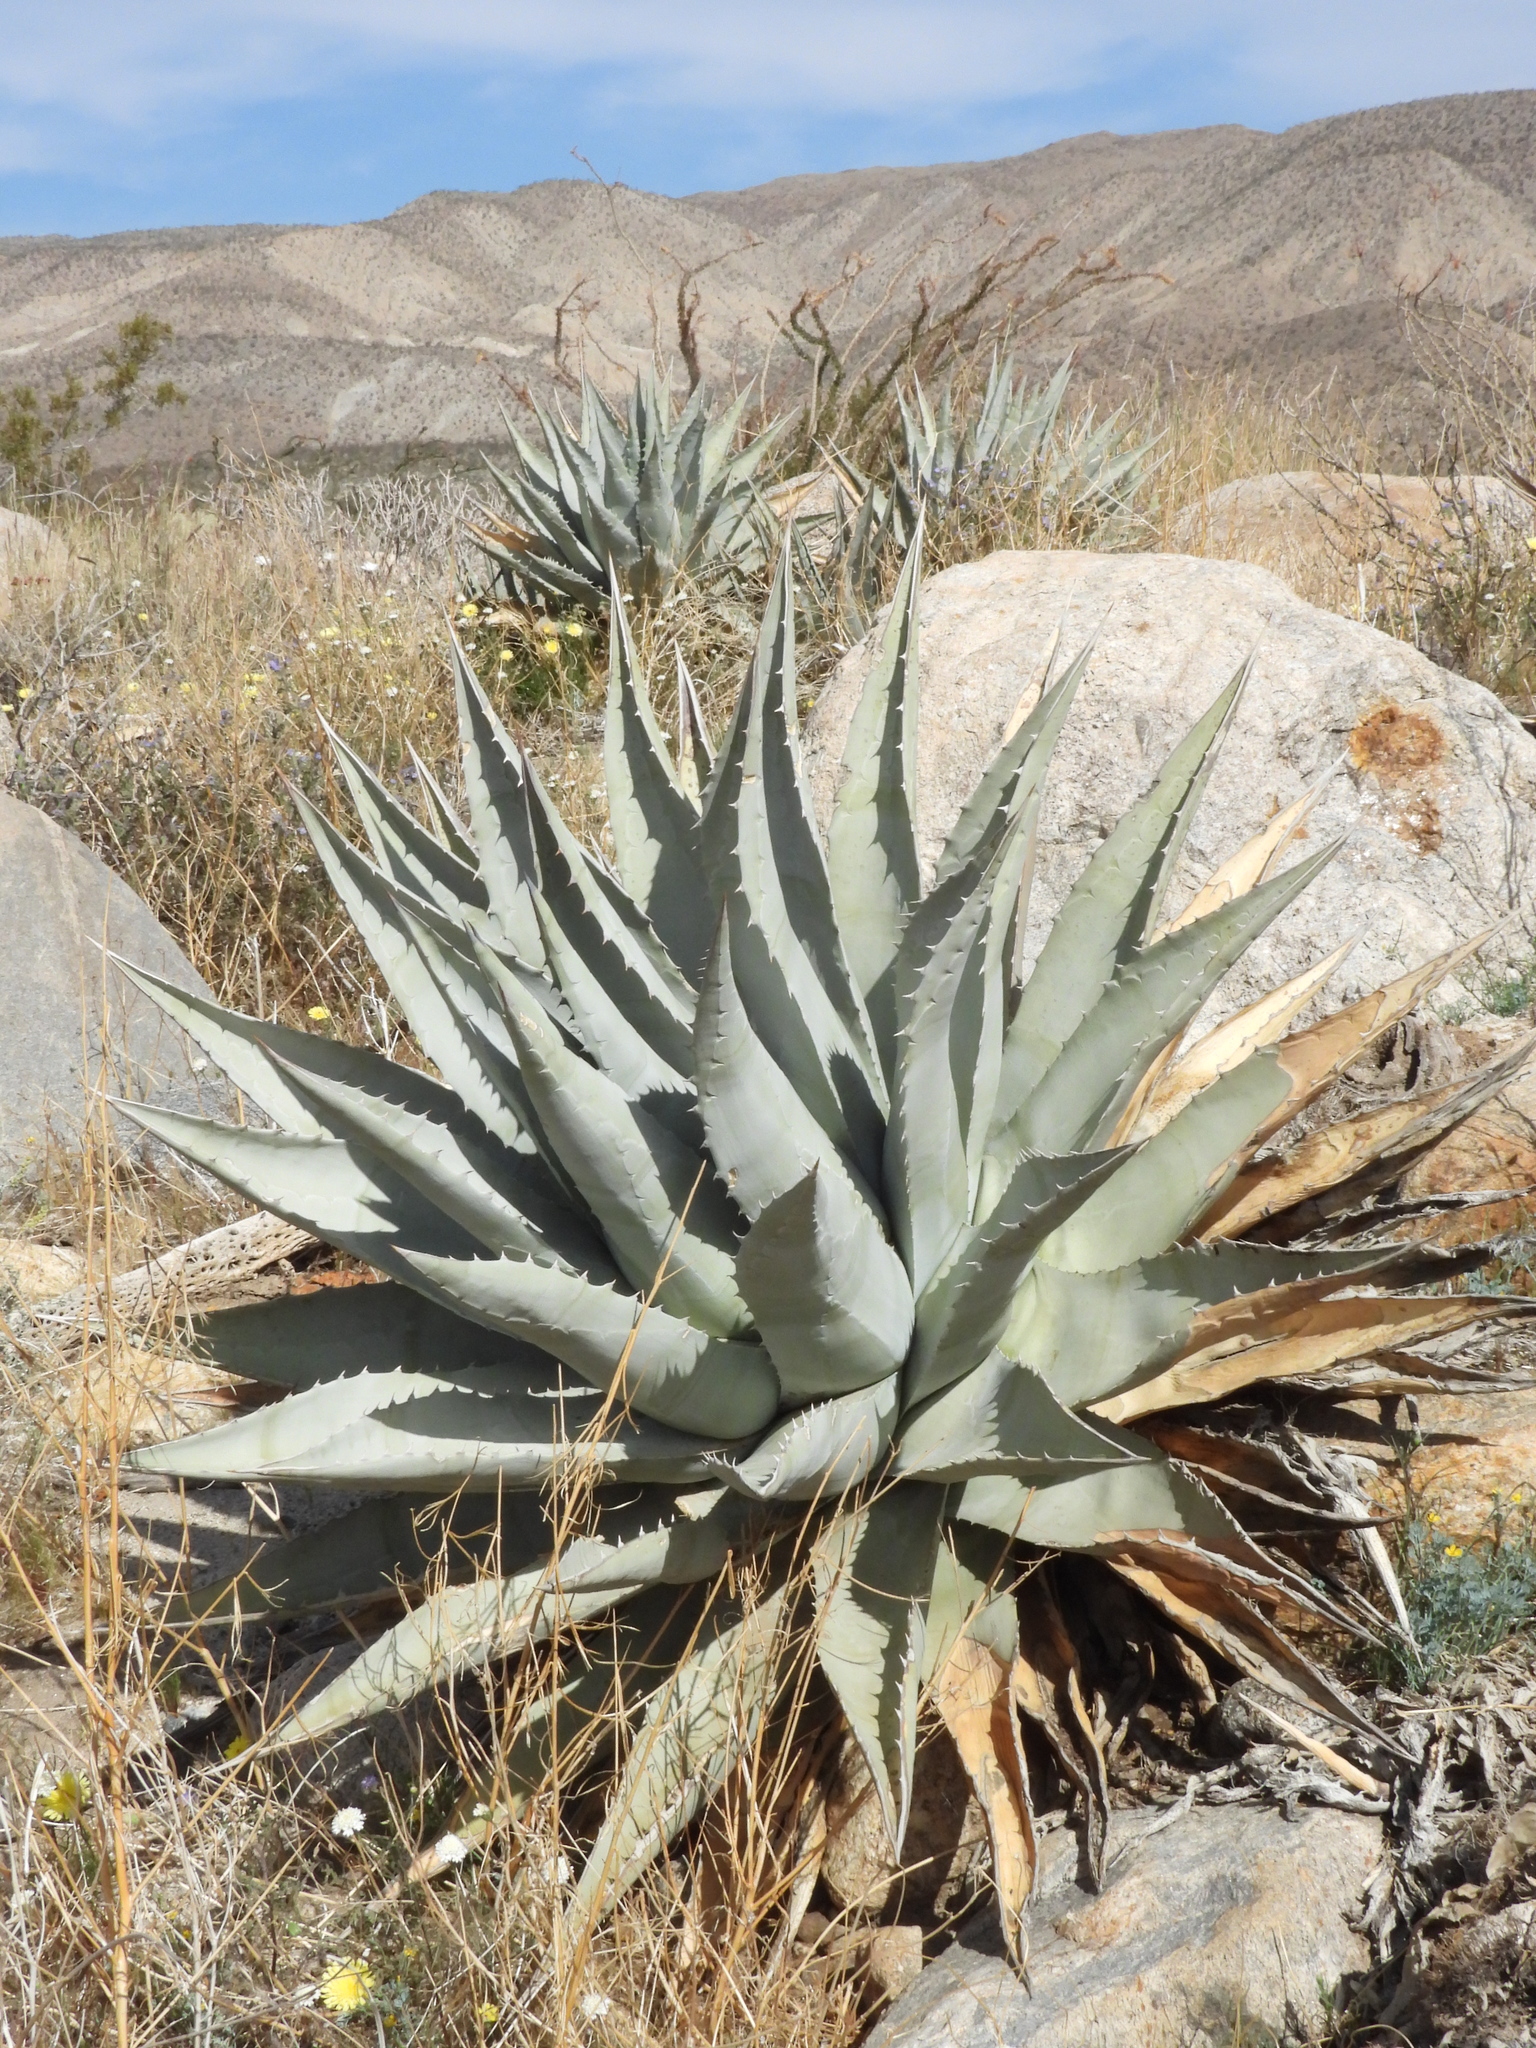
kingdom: Plantae
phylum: Tracheophyta
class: Liliopsida
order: Asparagales
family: Asparagaceae
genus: Agave
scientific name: Agave deserti
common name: Desert agave
